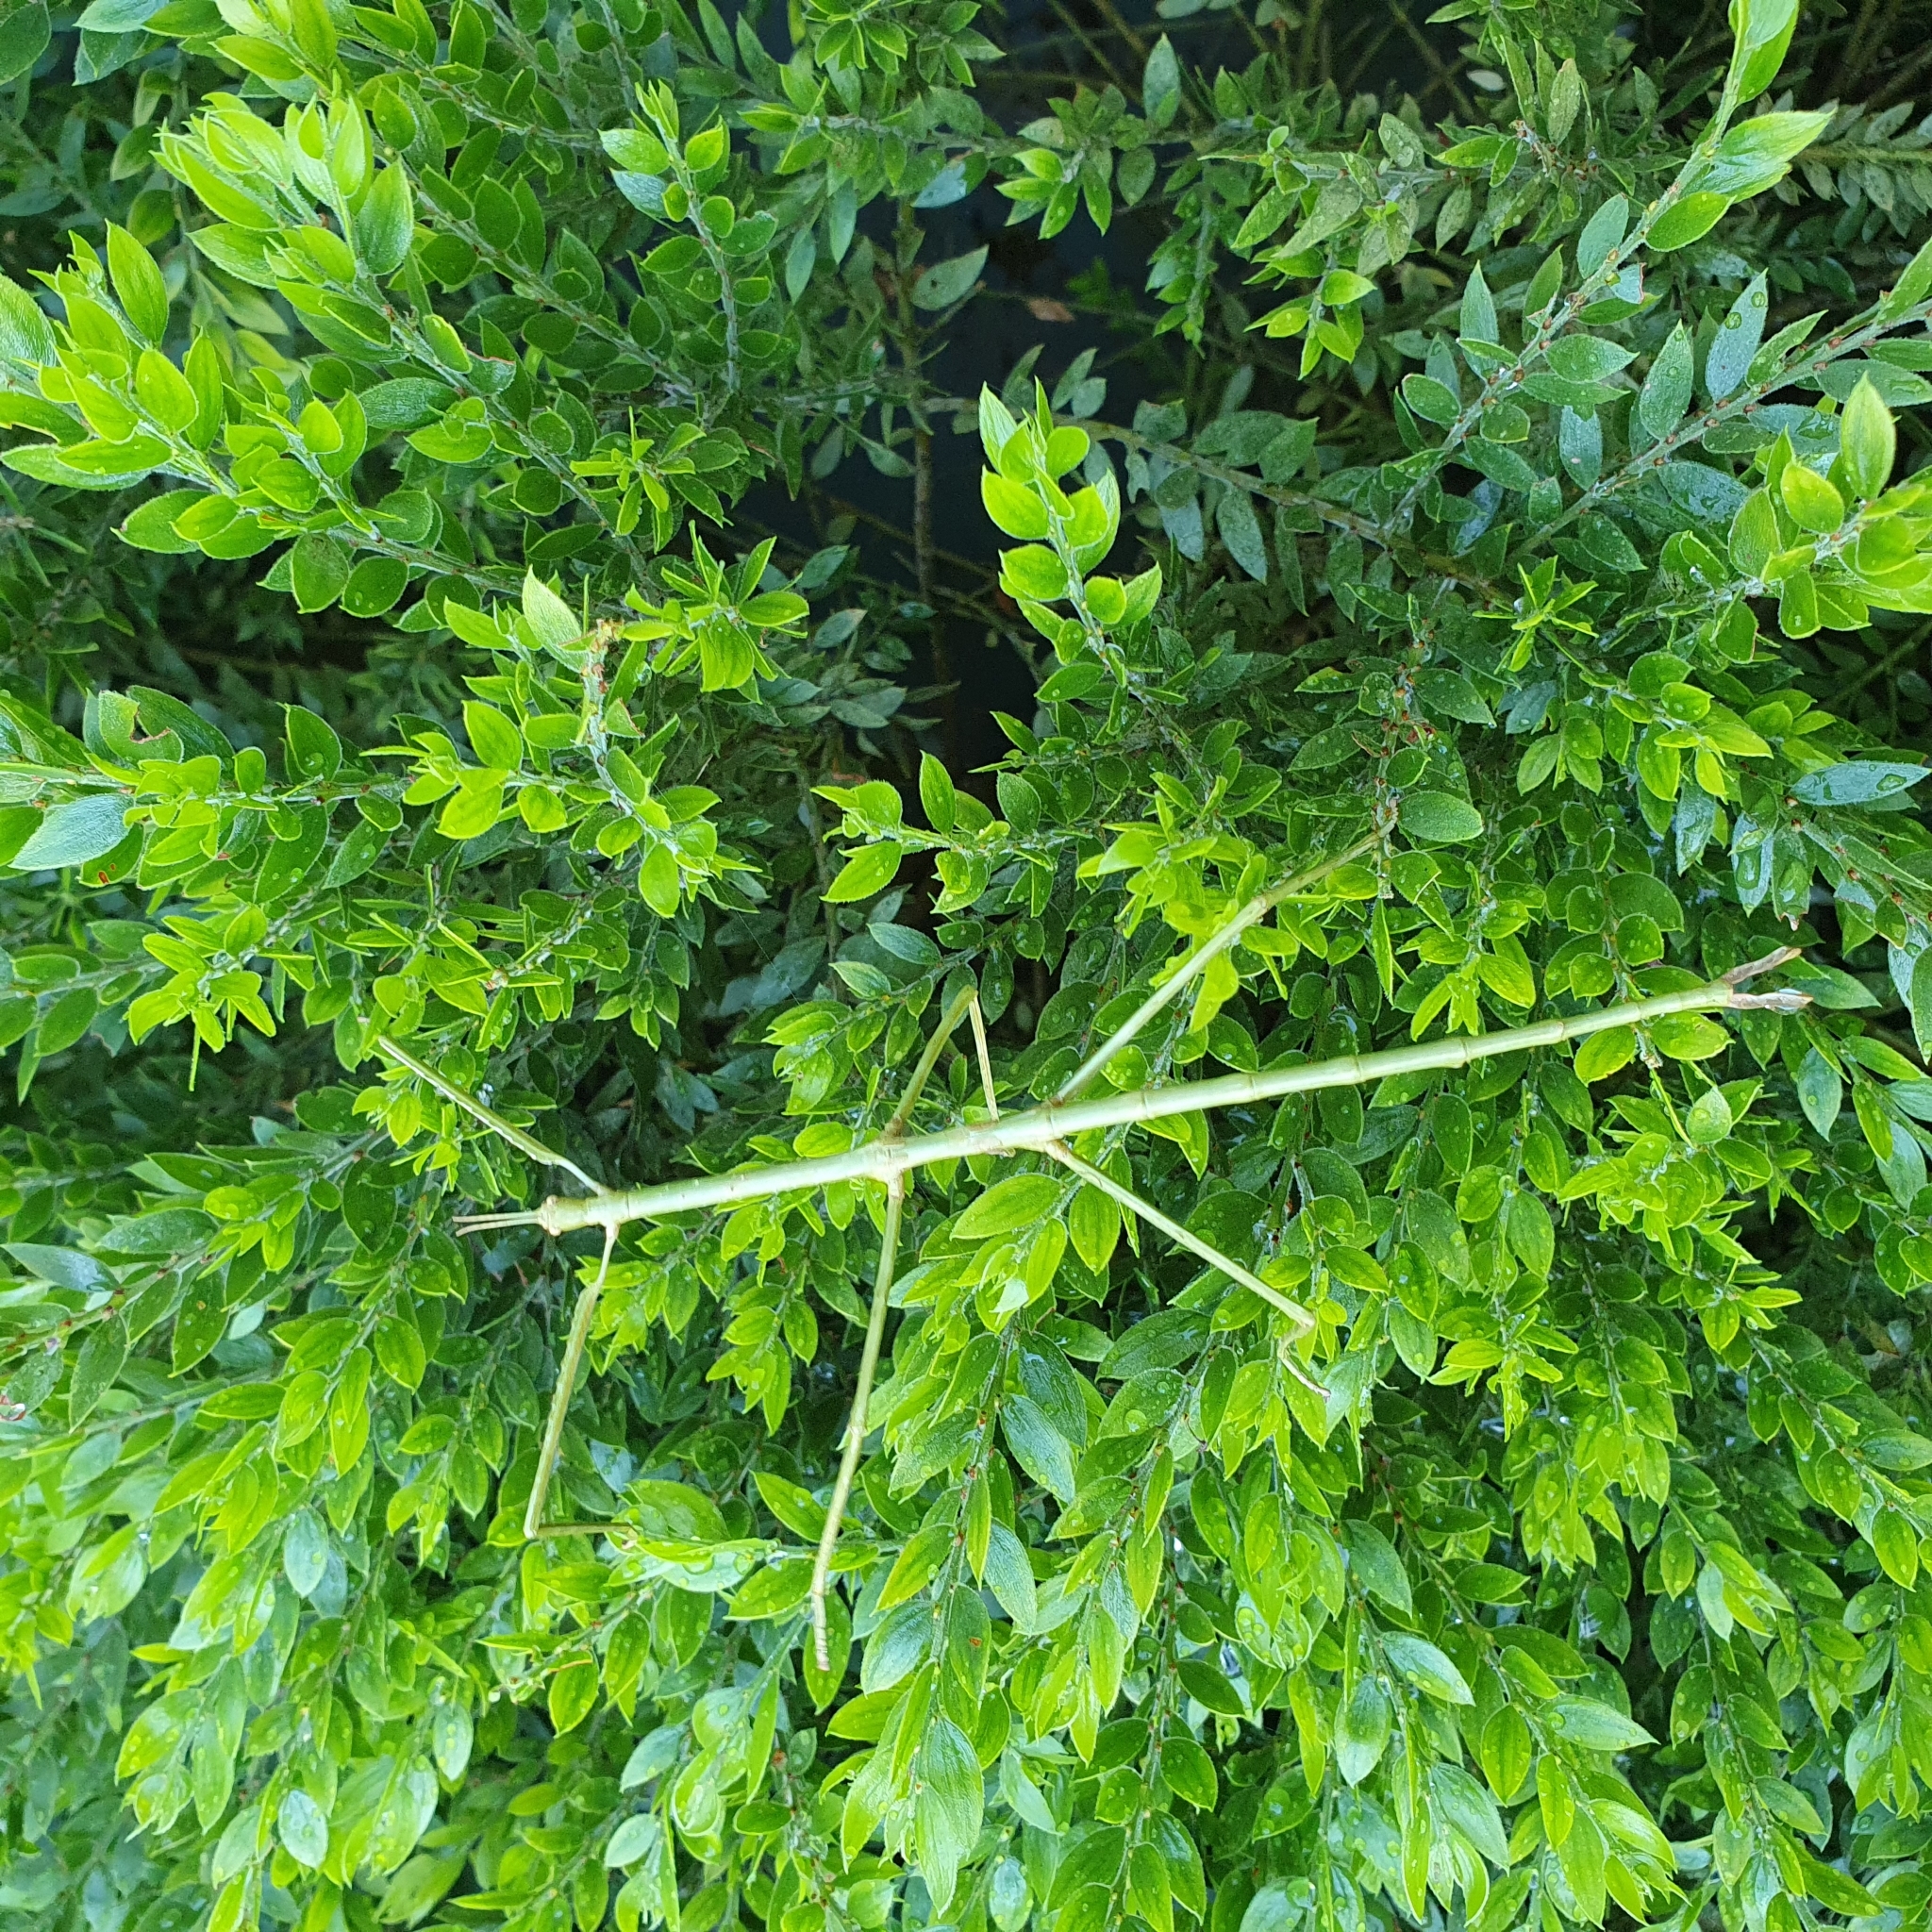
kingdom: Animalia
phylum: Arthropoda
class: Insecta
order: Phasmida
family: Phasmatidae
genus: Ctenomorpha
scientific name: Ctenomorpha marginipennis
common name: Margined-winged stick-insect
